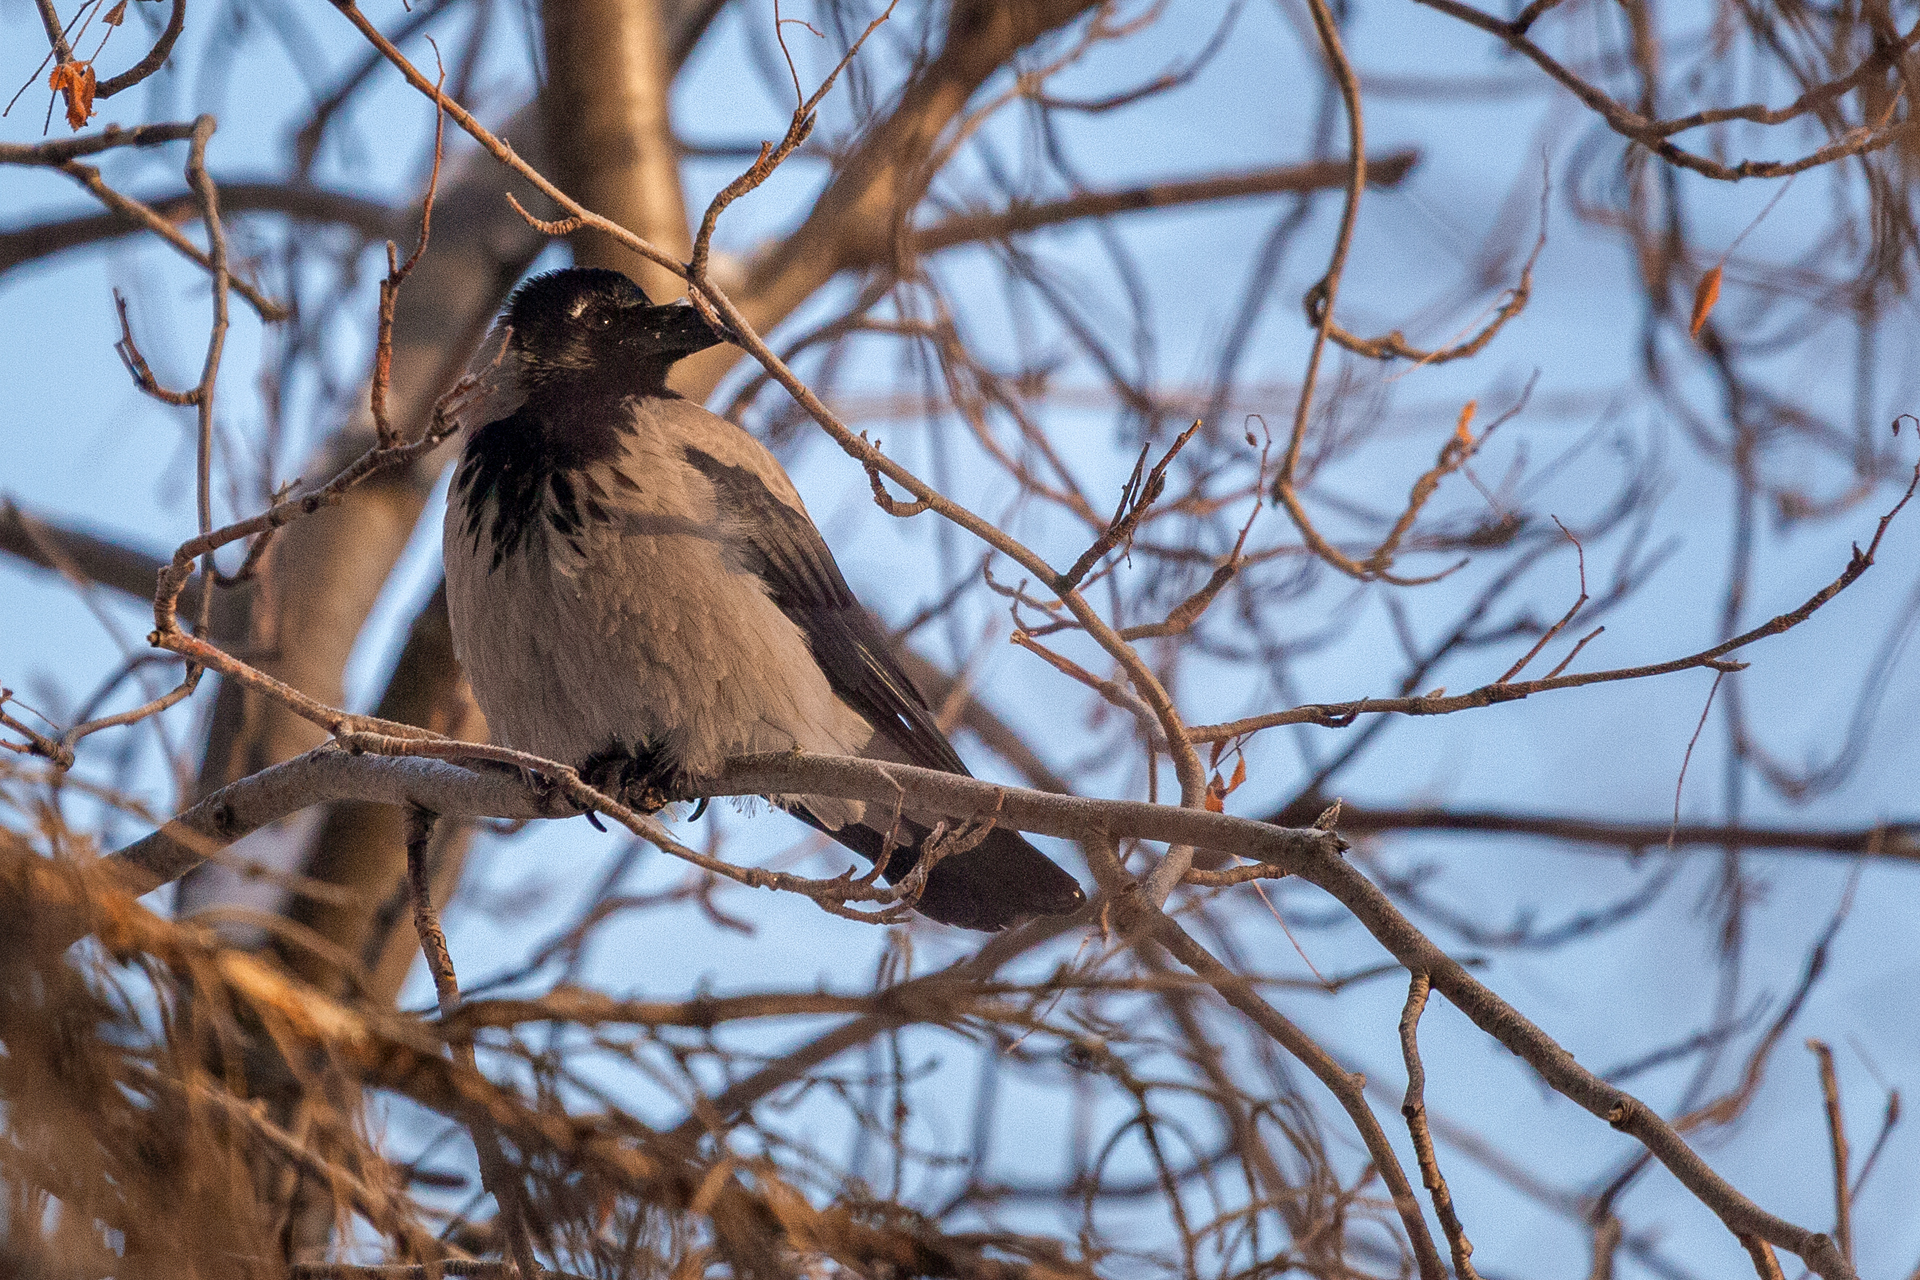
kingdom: Animalia
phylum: Chordata
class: Aves
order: Passeriformes
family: Corvidae
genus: Corvus
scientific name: Corvus cornix
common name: Hooded crow
